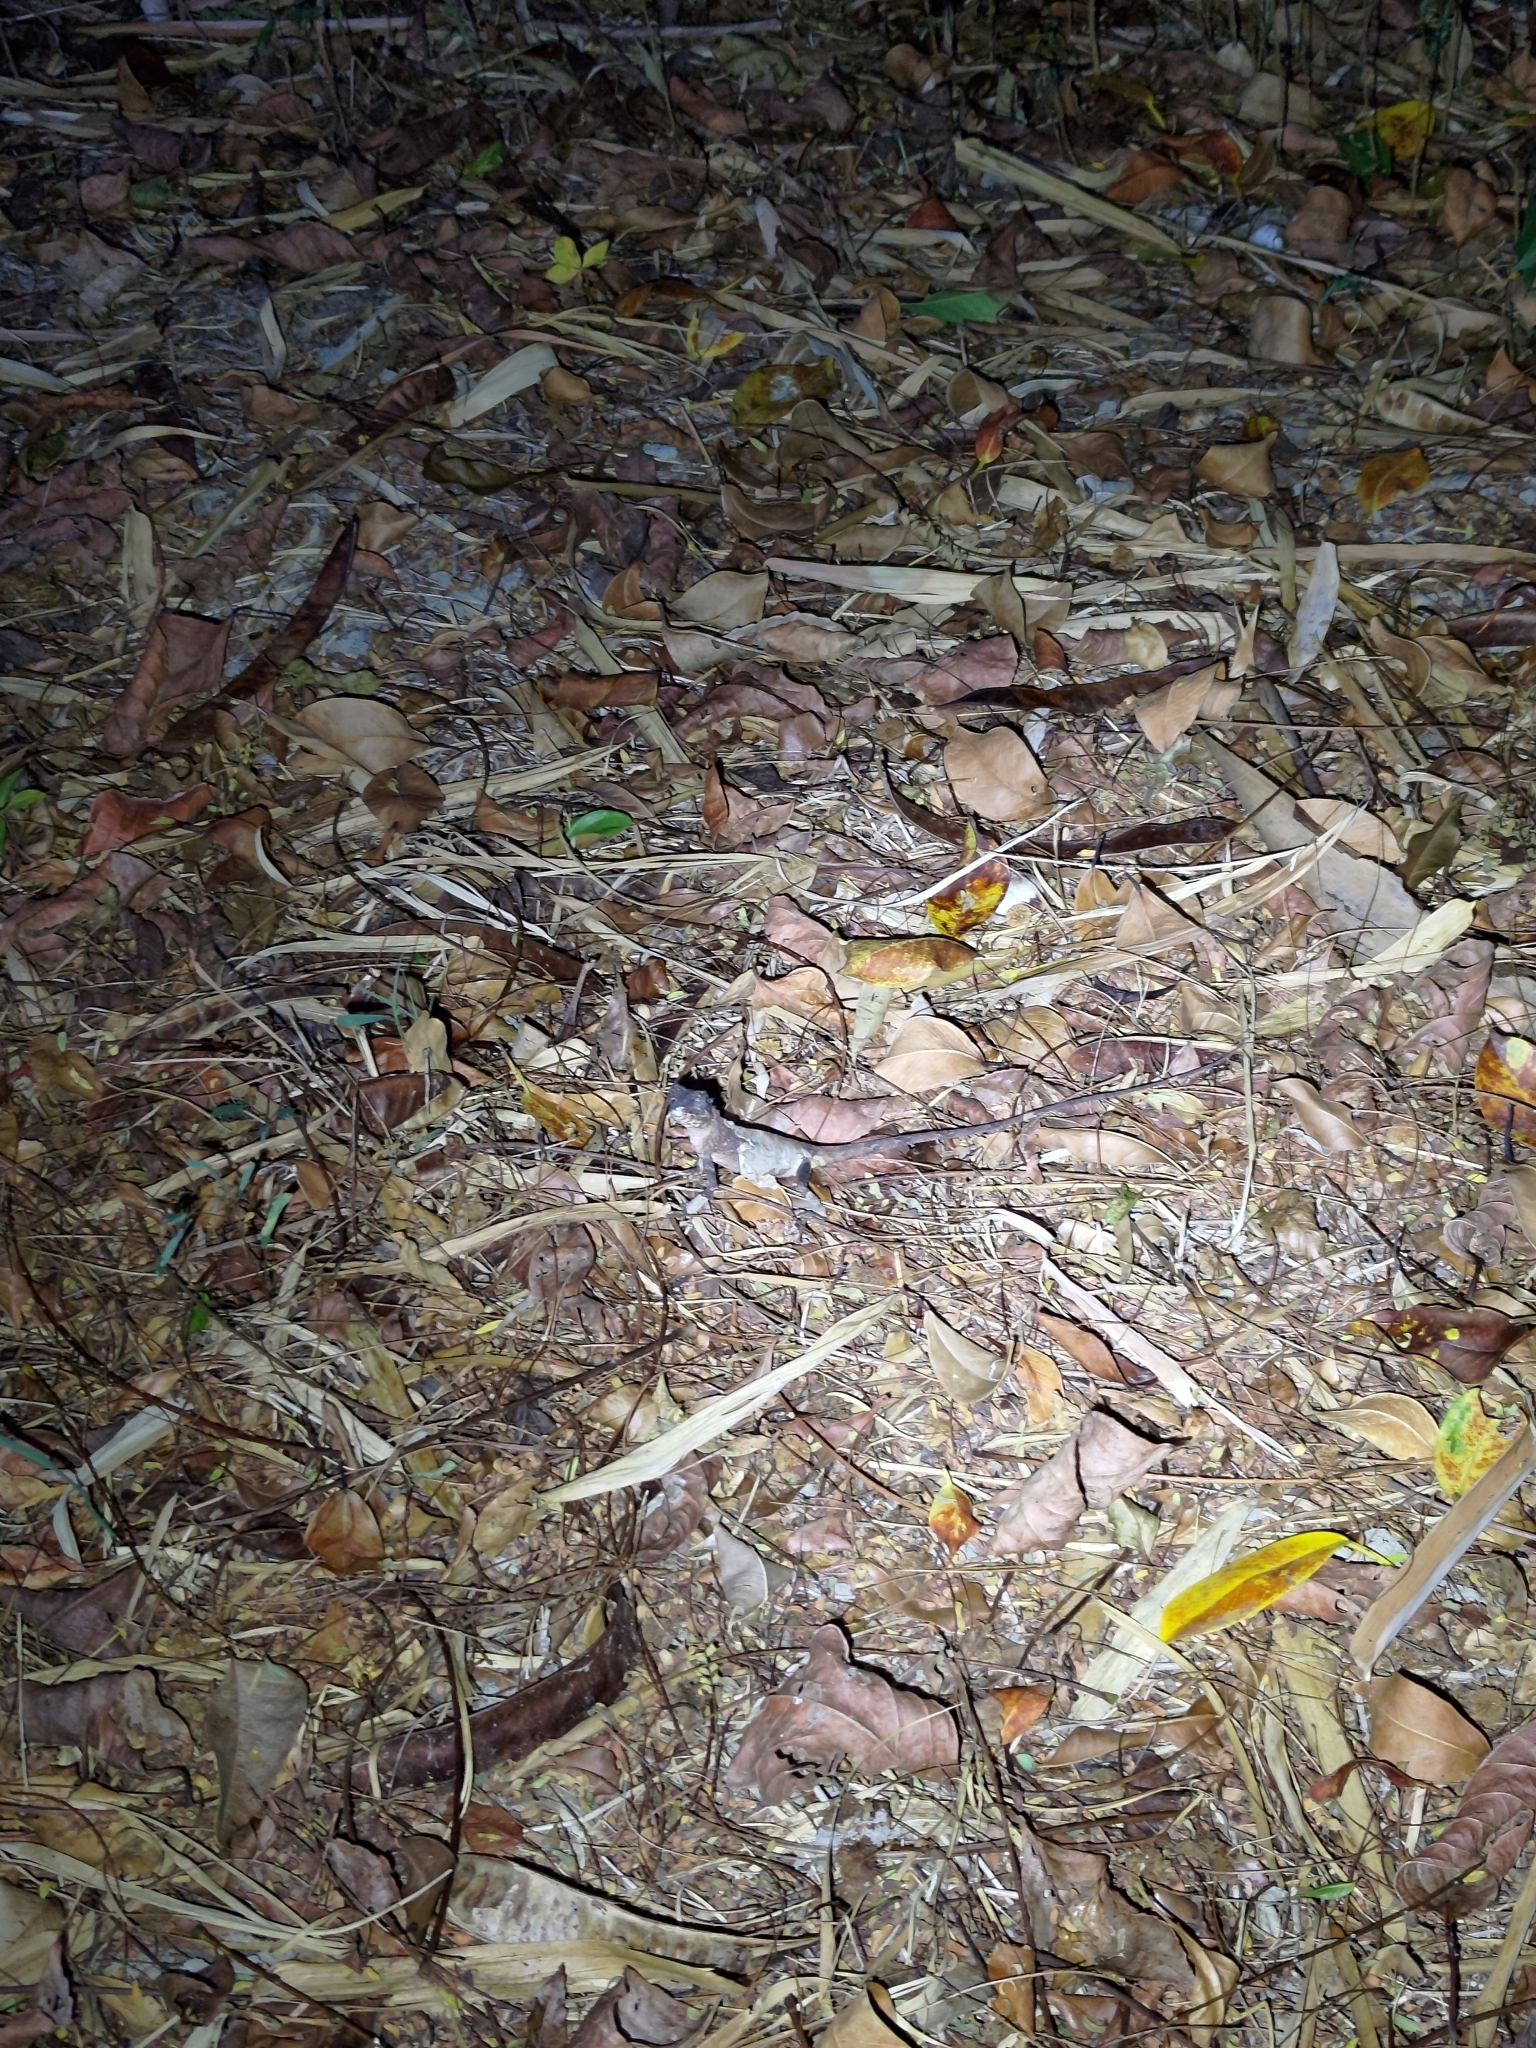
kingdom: Animalia
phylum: Chordata
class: Squamata
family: Agamidae
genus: Diploderma
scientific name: Diploderma swinhonis
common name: Taiwan japalure
